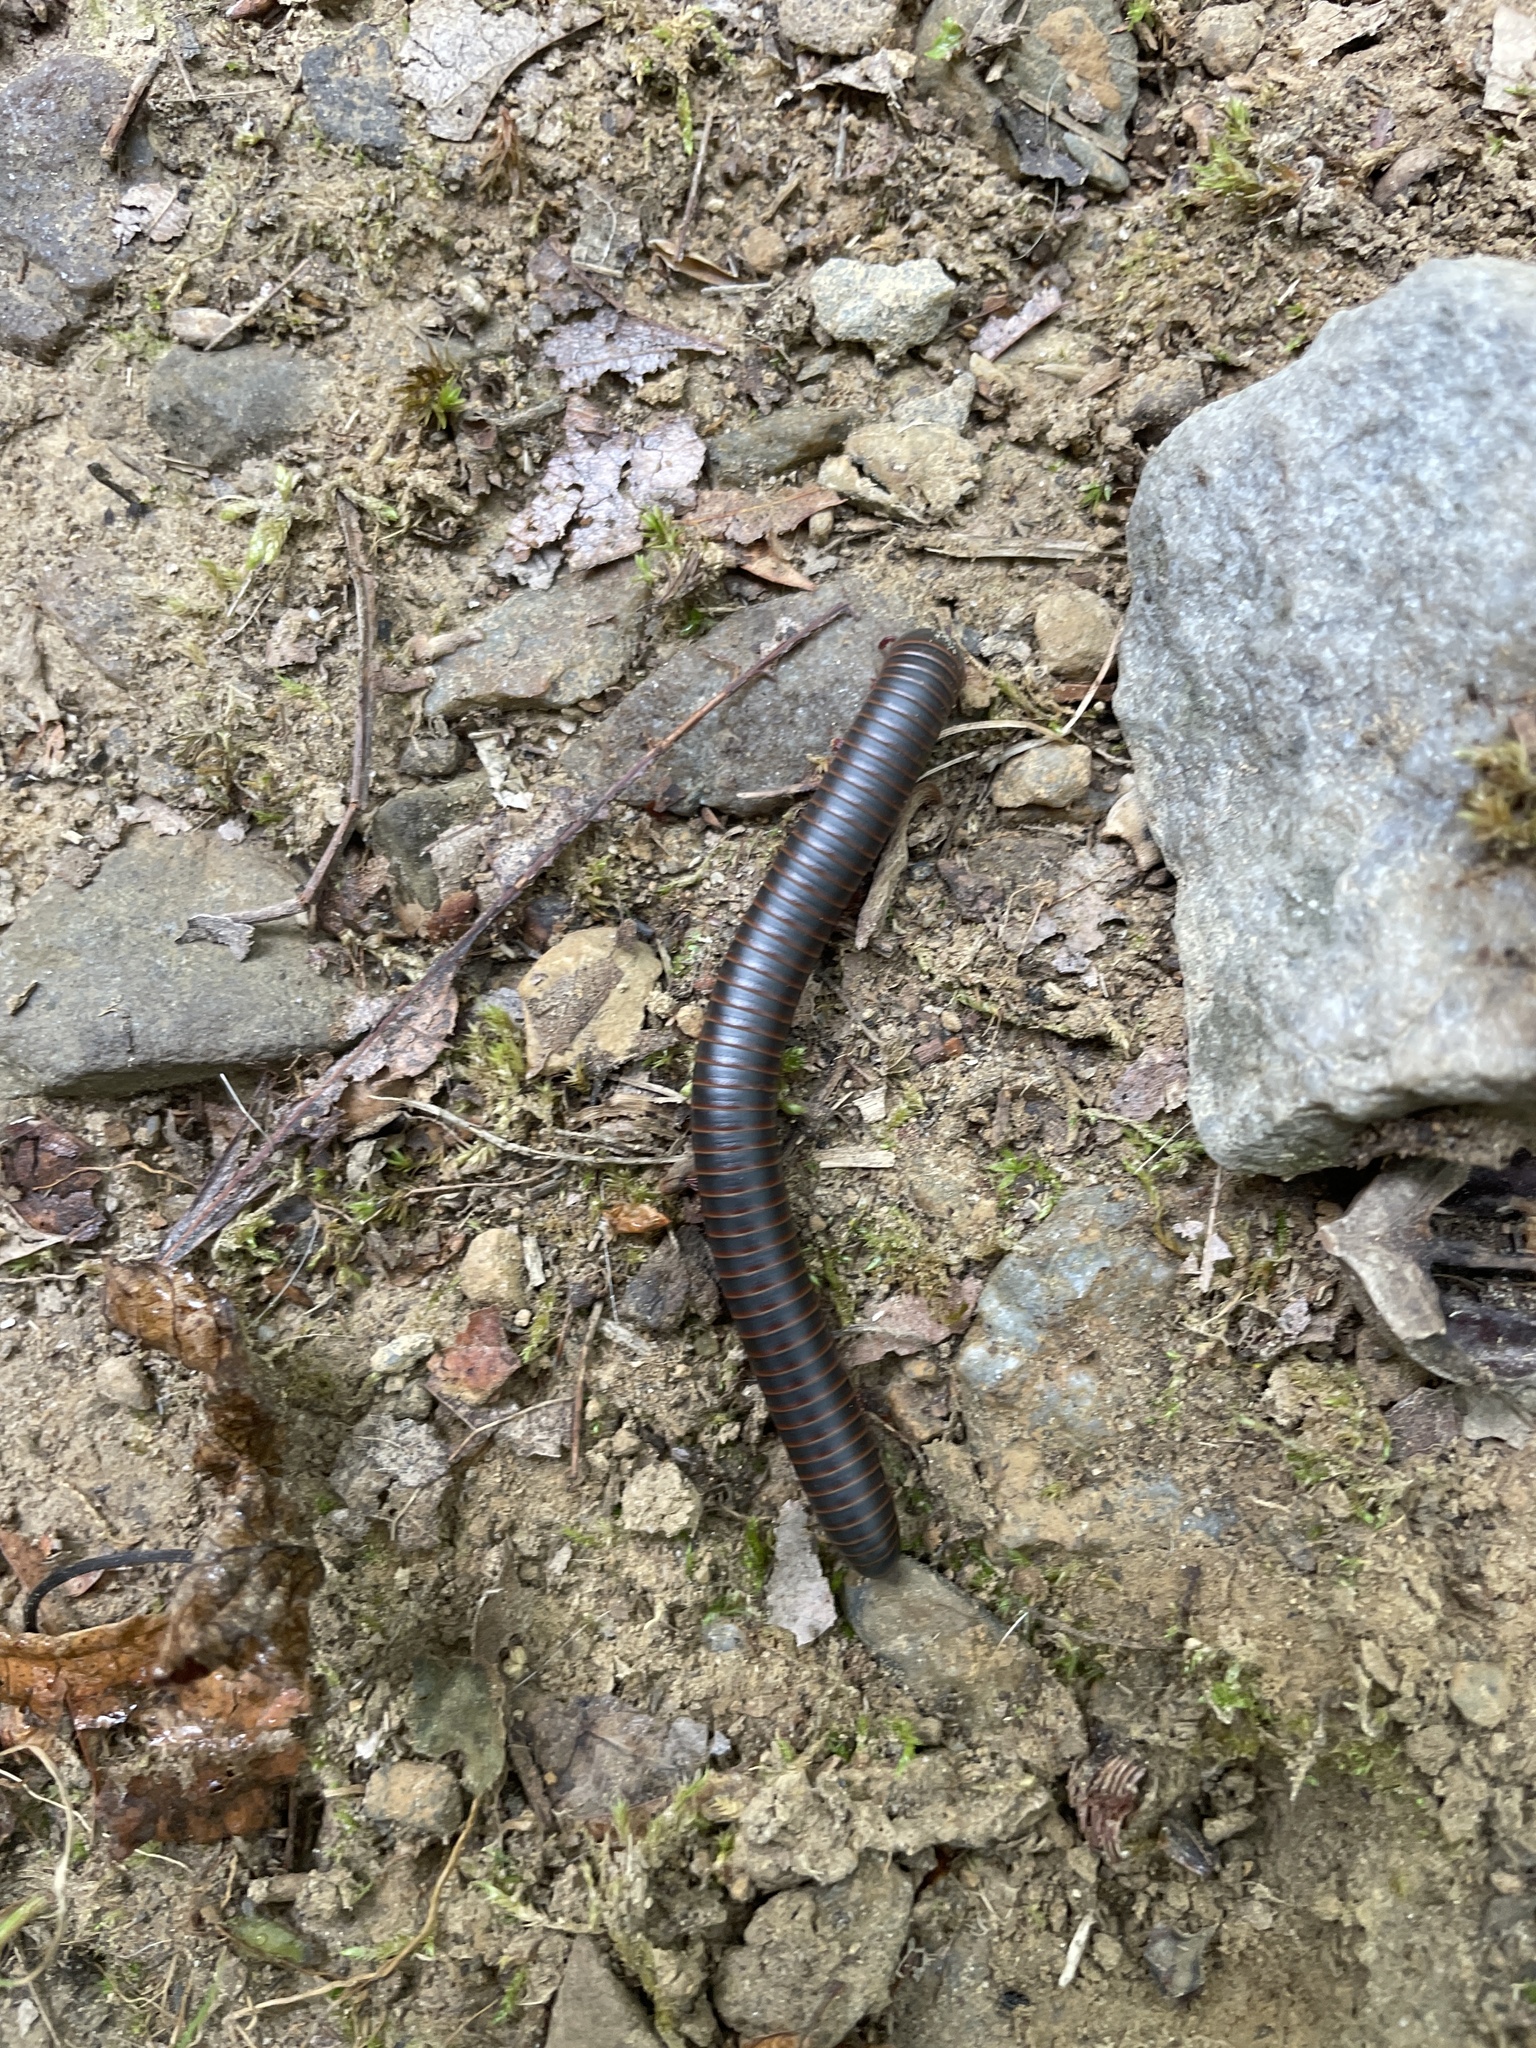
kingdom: Animalia
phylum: Arthropoda
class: Diplopoda
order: Spirobolida
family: Spirobolidae
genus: Narceus
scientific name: Narceus americanus
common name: American giant millipede
